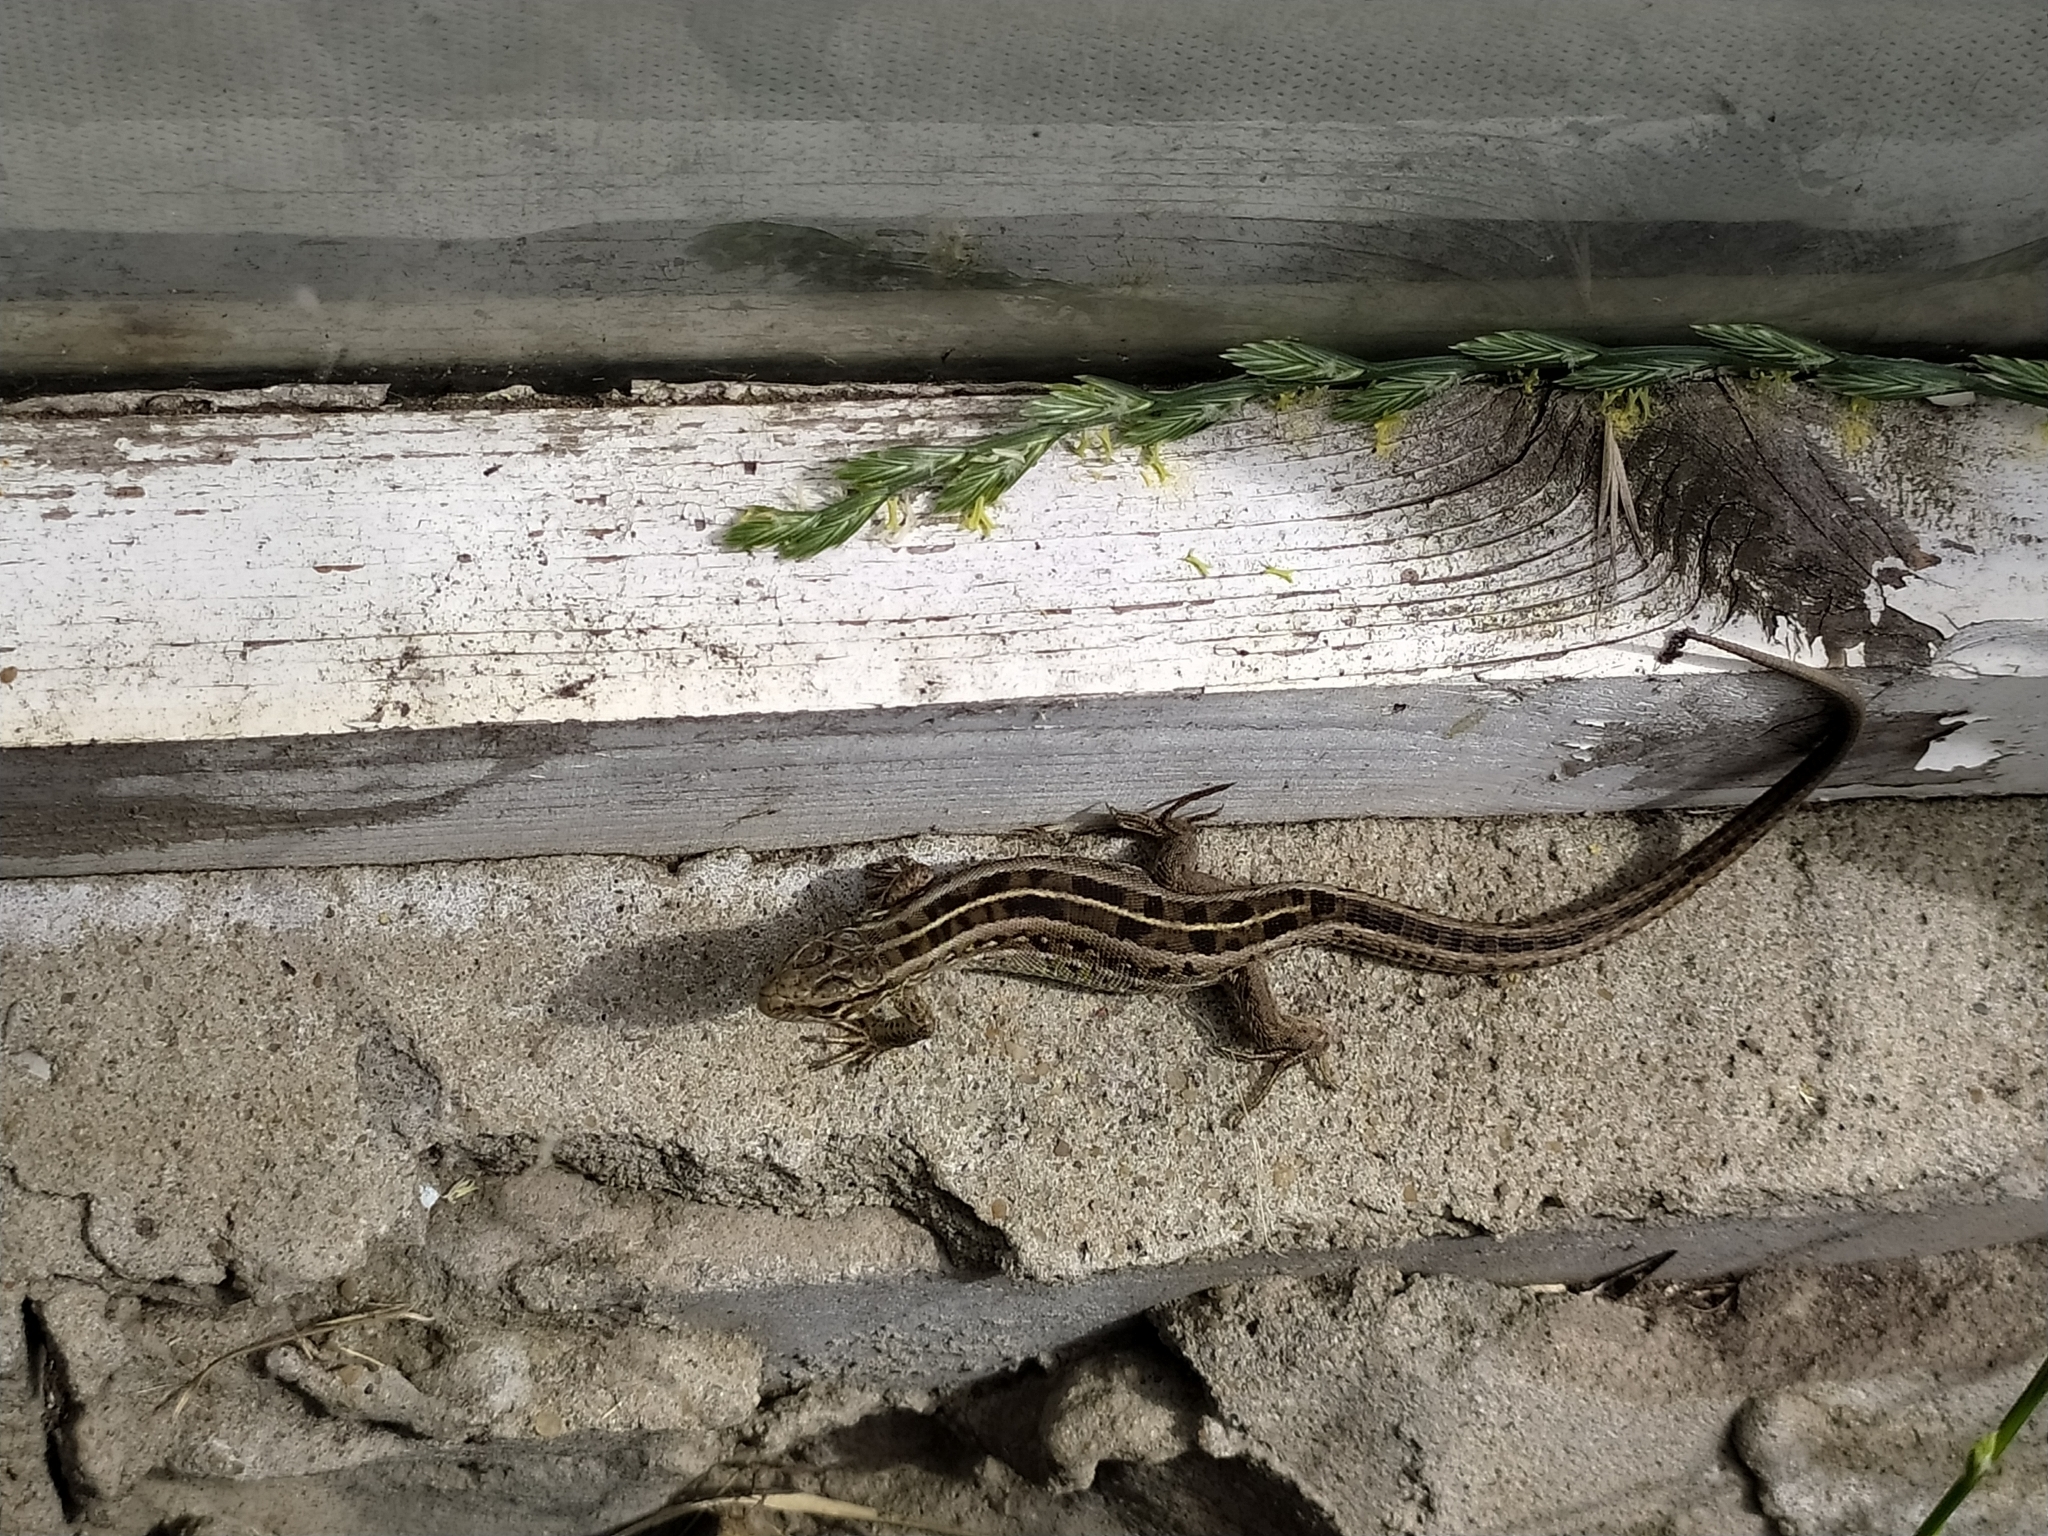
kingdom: Animalia
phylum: Chordata
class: Squamata
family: Lacertidae
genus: Lacerta
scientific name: Lacerta agilis
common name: Sand lizard
